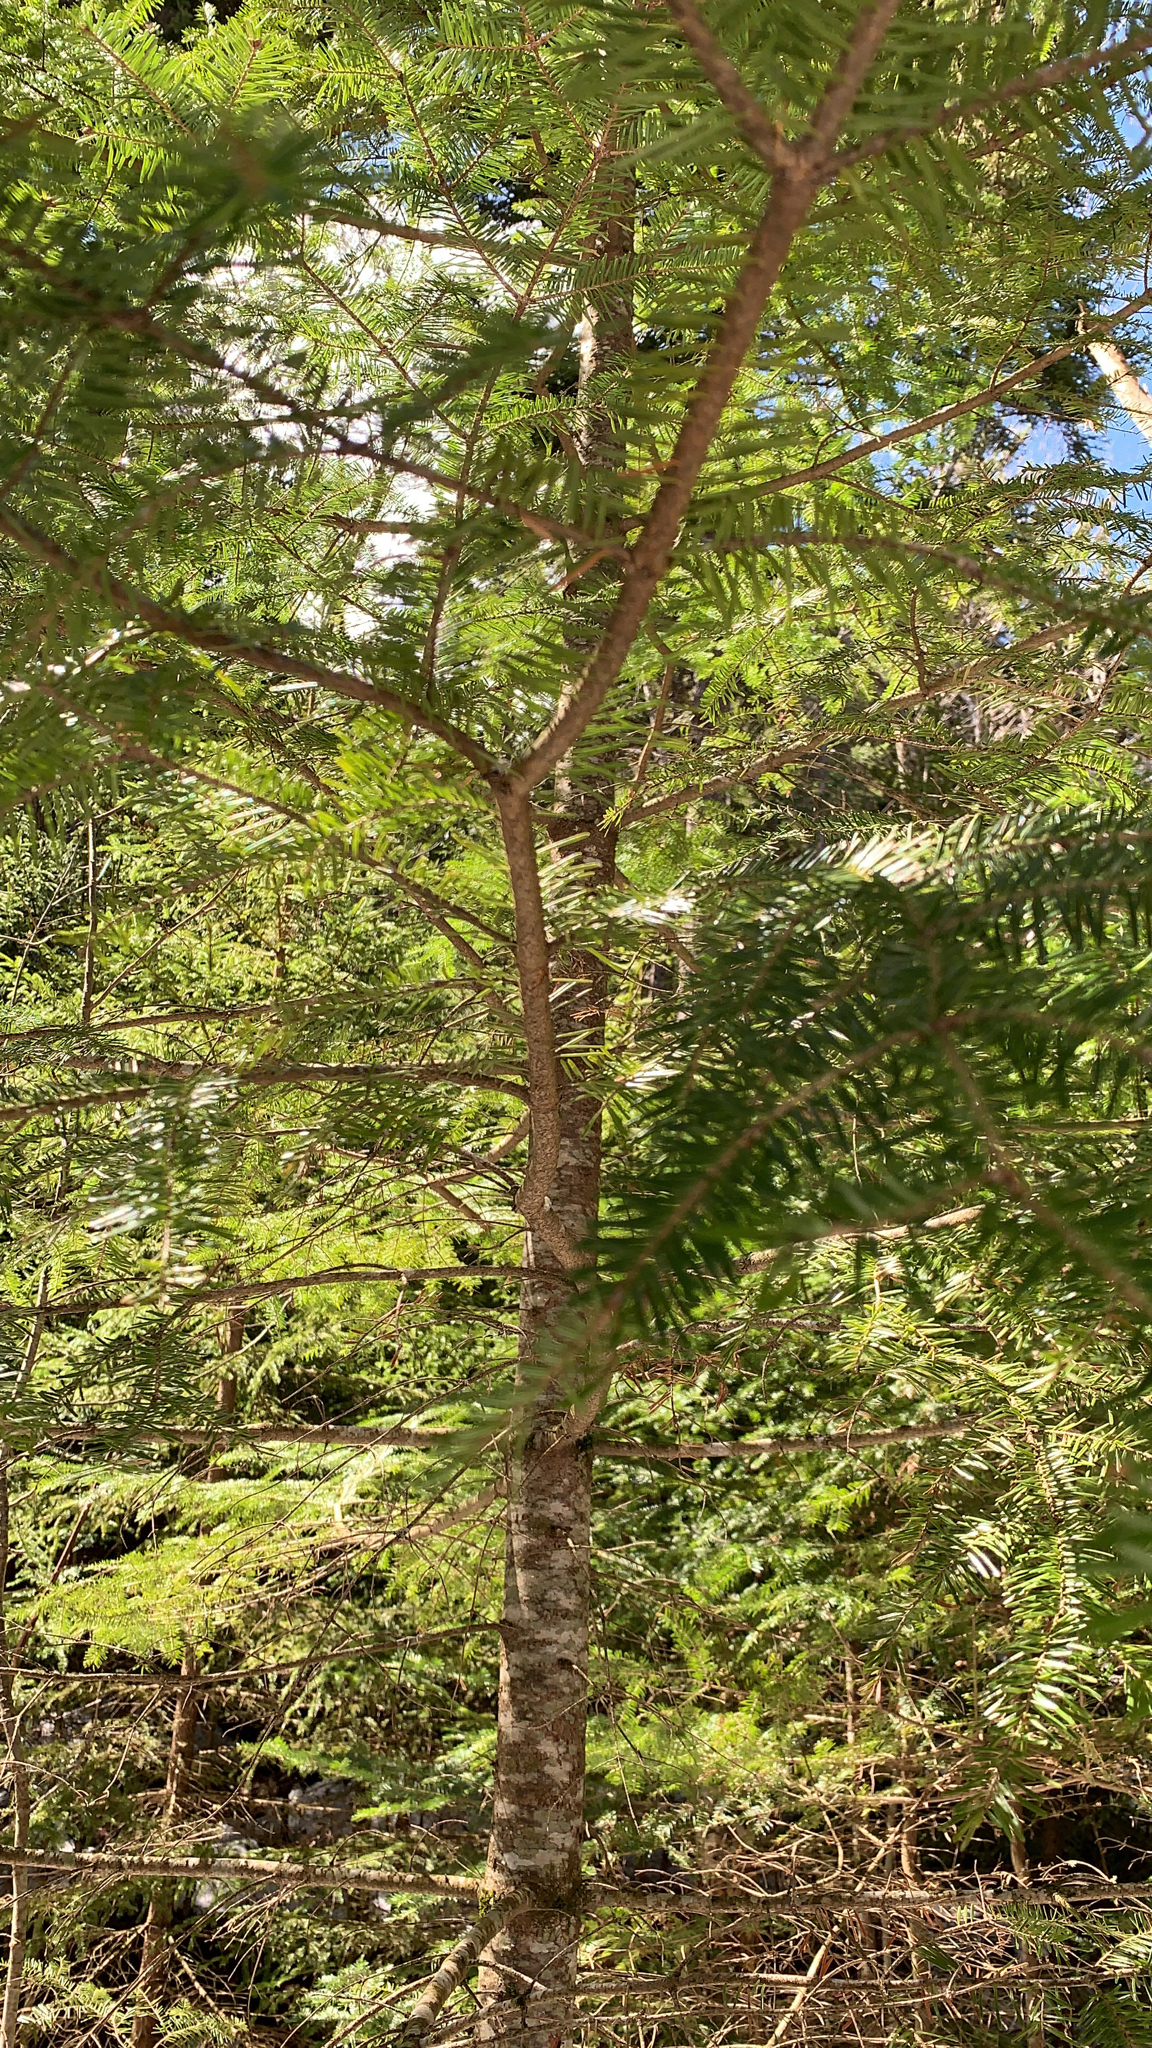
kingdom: Plantae
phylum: Tracheophyta
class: Pinopsida
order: Pinales
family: Pinaceae
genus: Abies
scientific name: Abies balsamea
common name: Balsam fir
